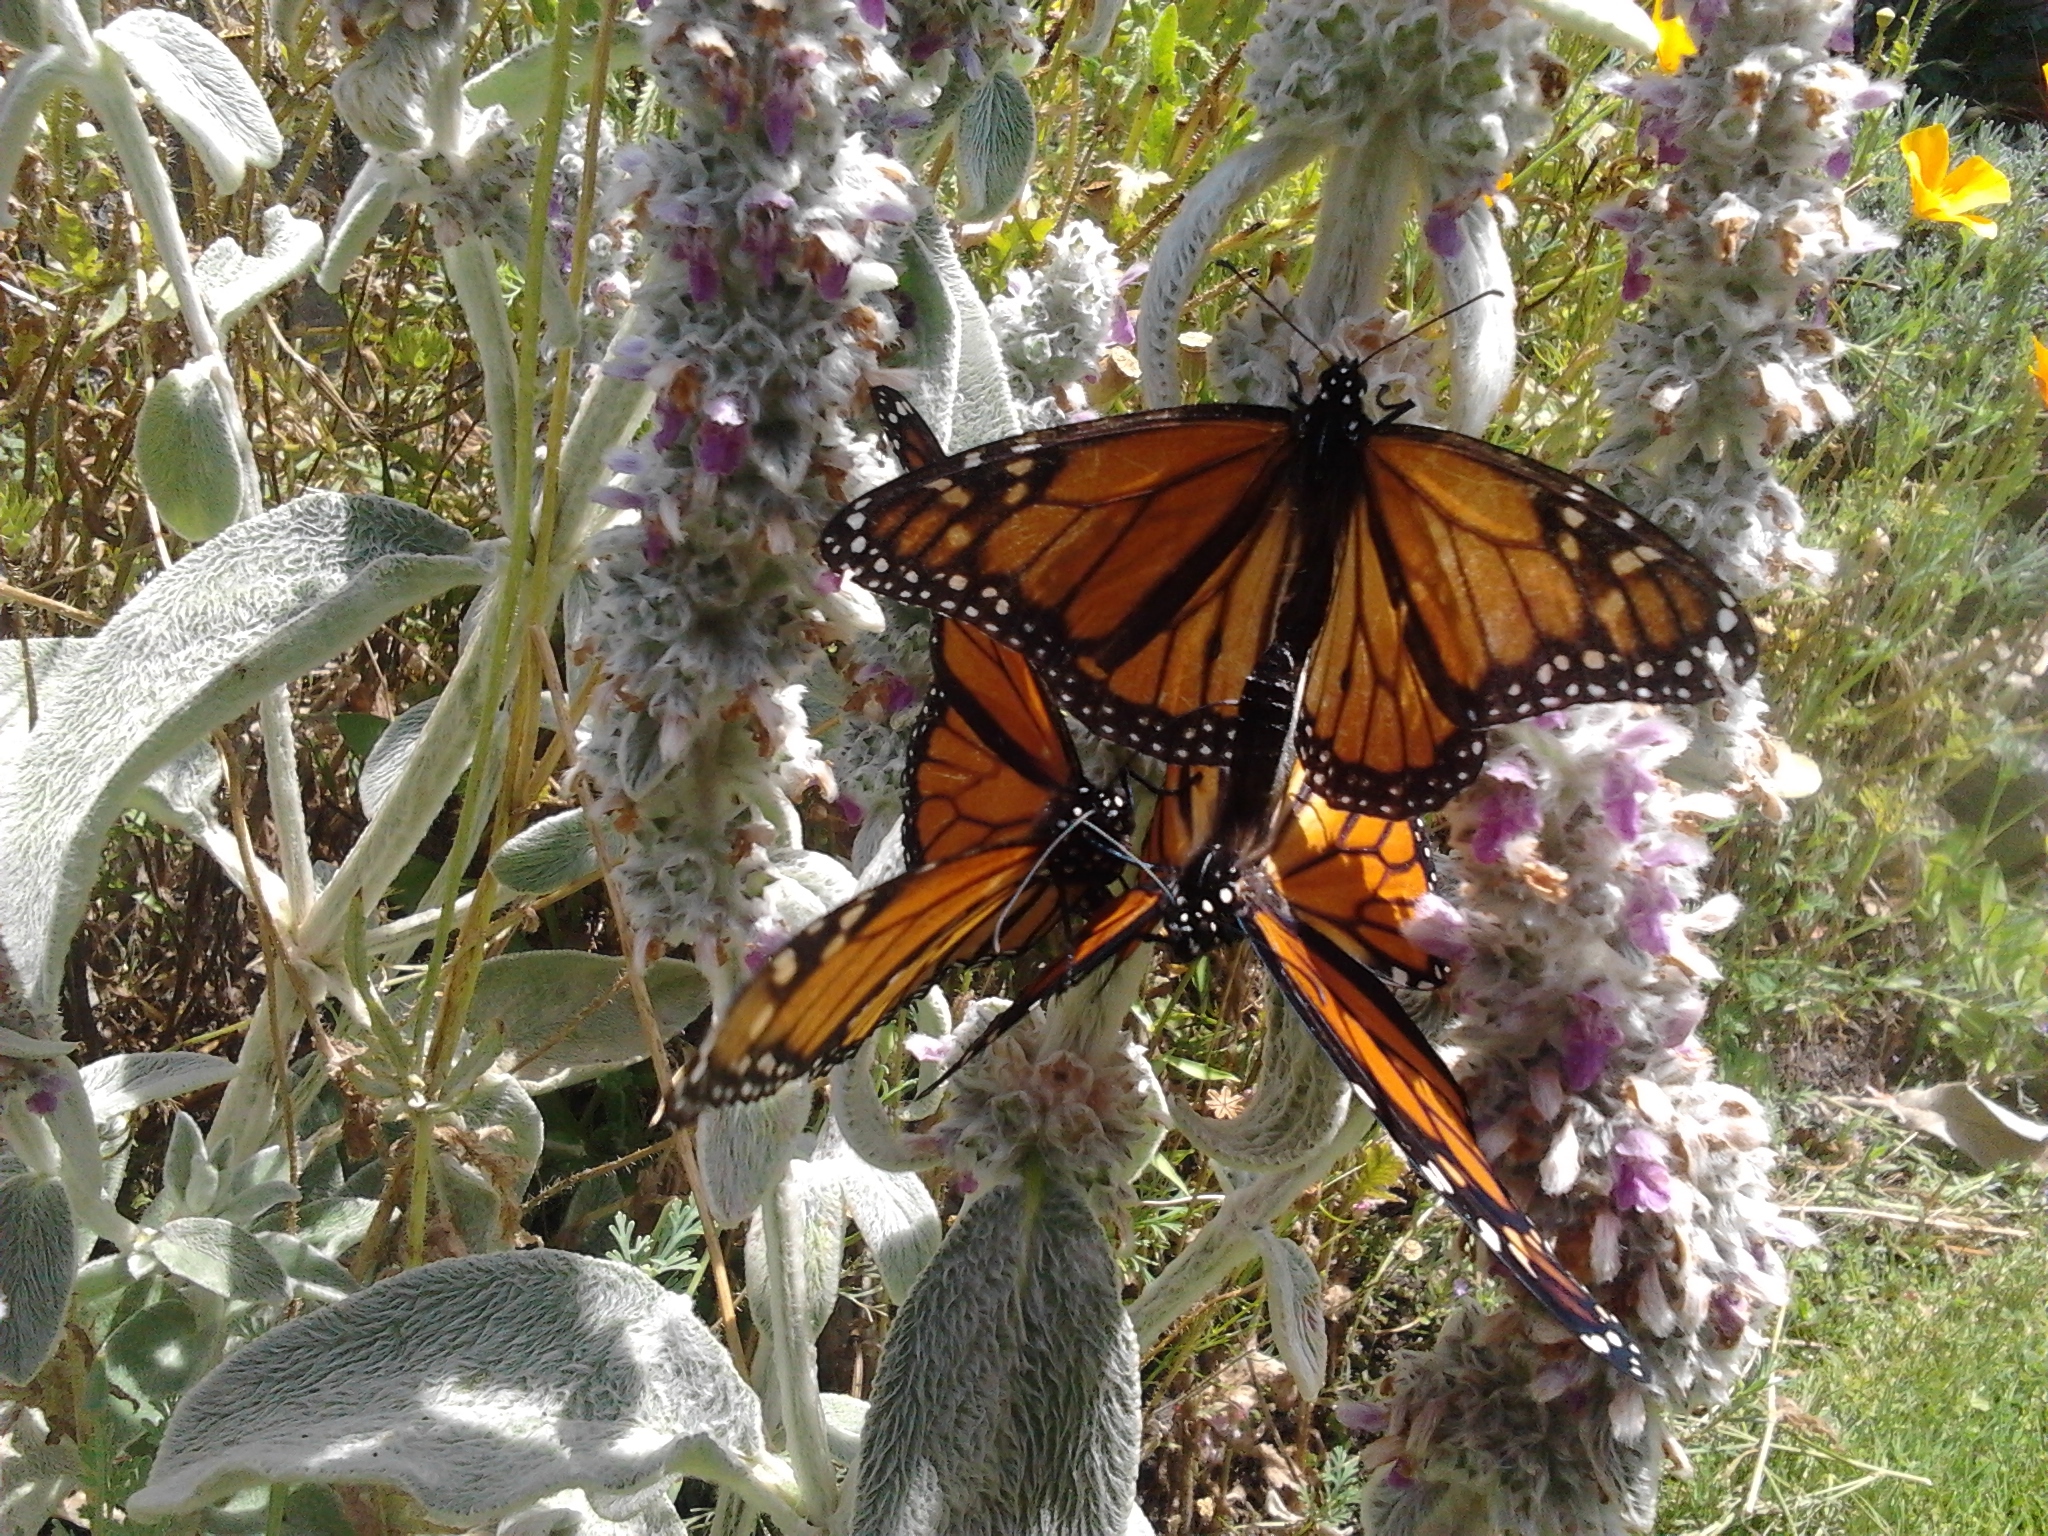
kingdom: Animalia
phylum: Arthropoda
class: Insecta
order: Lepidoptera
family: Nymphalidae
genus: Danaus
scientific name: Danaus plexippus
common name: Monarch
